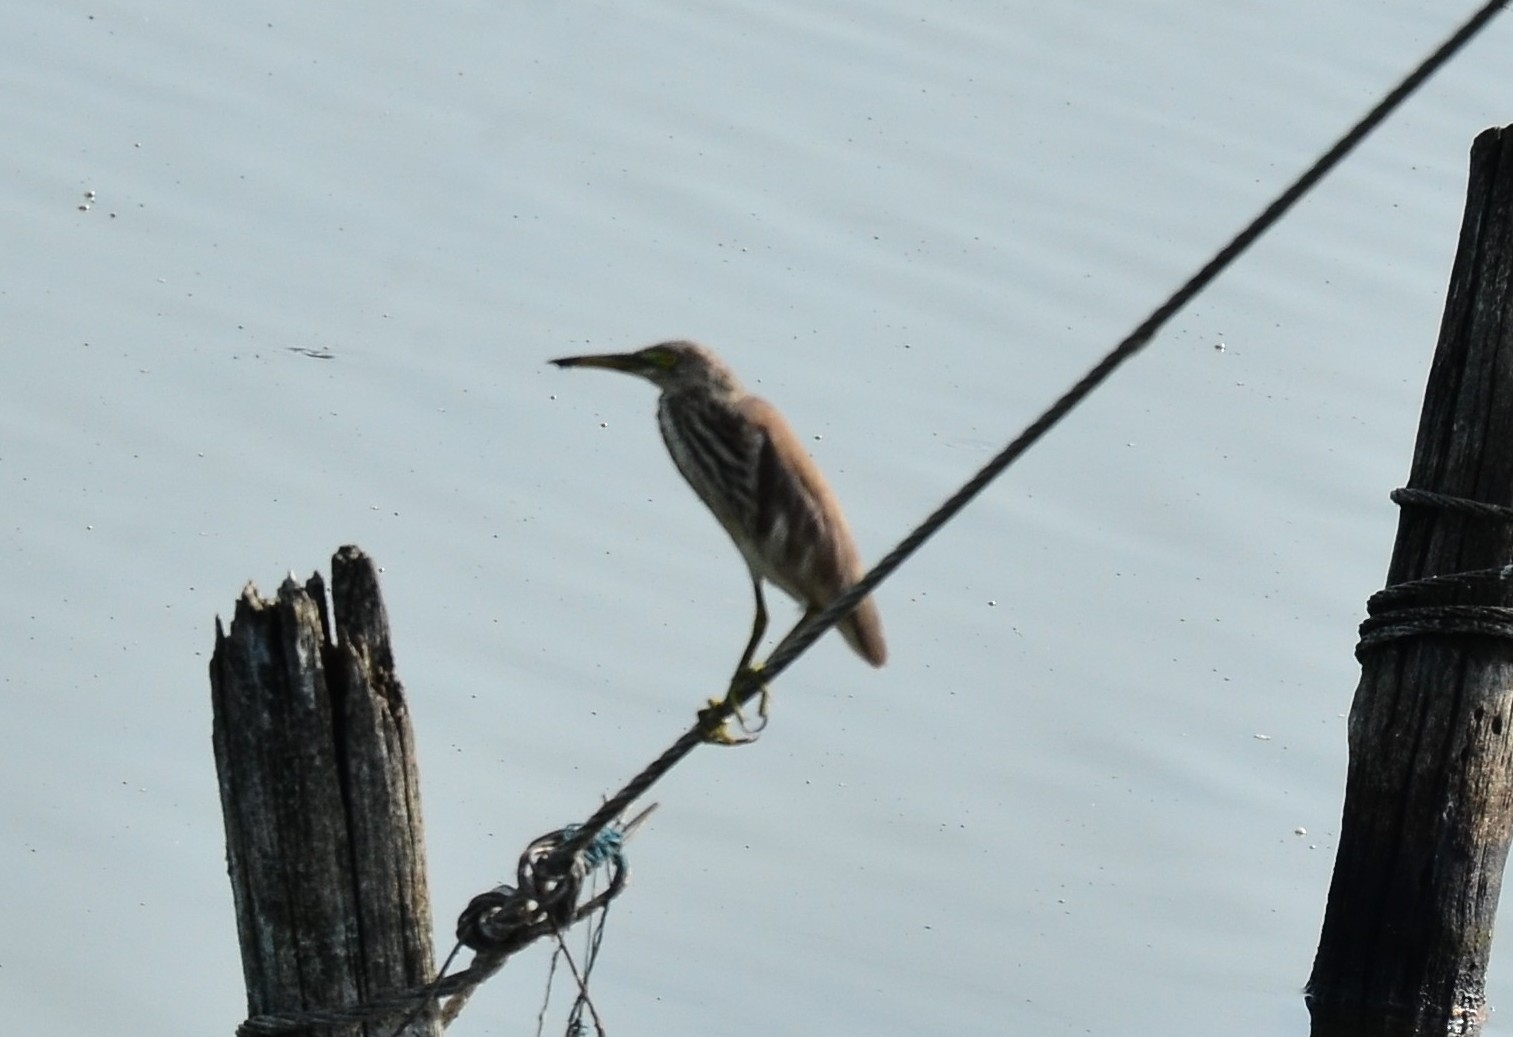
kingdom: Animalia
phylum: Chordata
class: Aves
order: Pelecaniformes
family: Ardeidae
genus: Ardeola
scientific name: Ardeola grayii
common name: Indian pond heron
